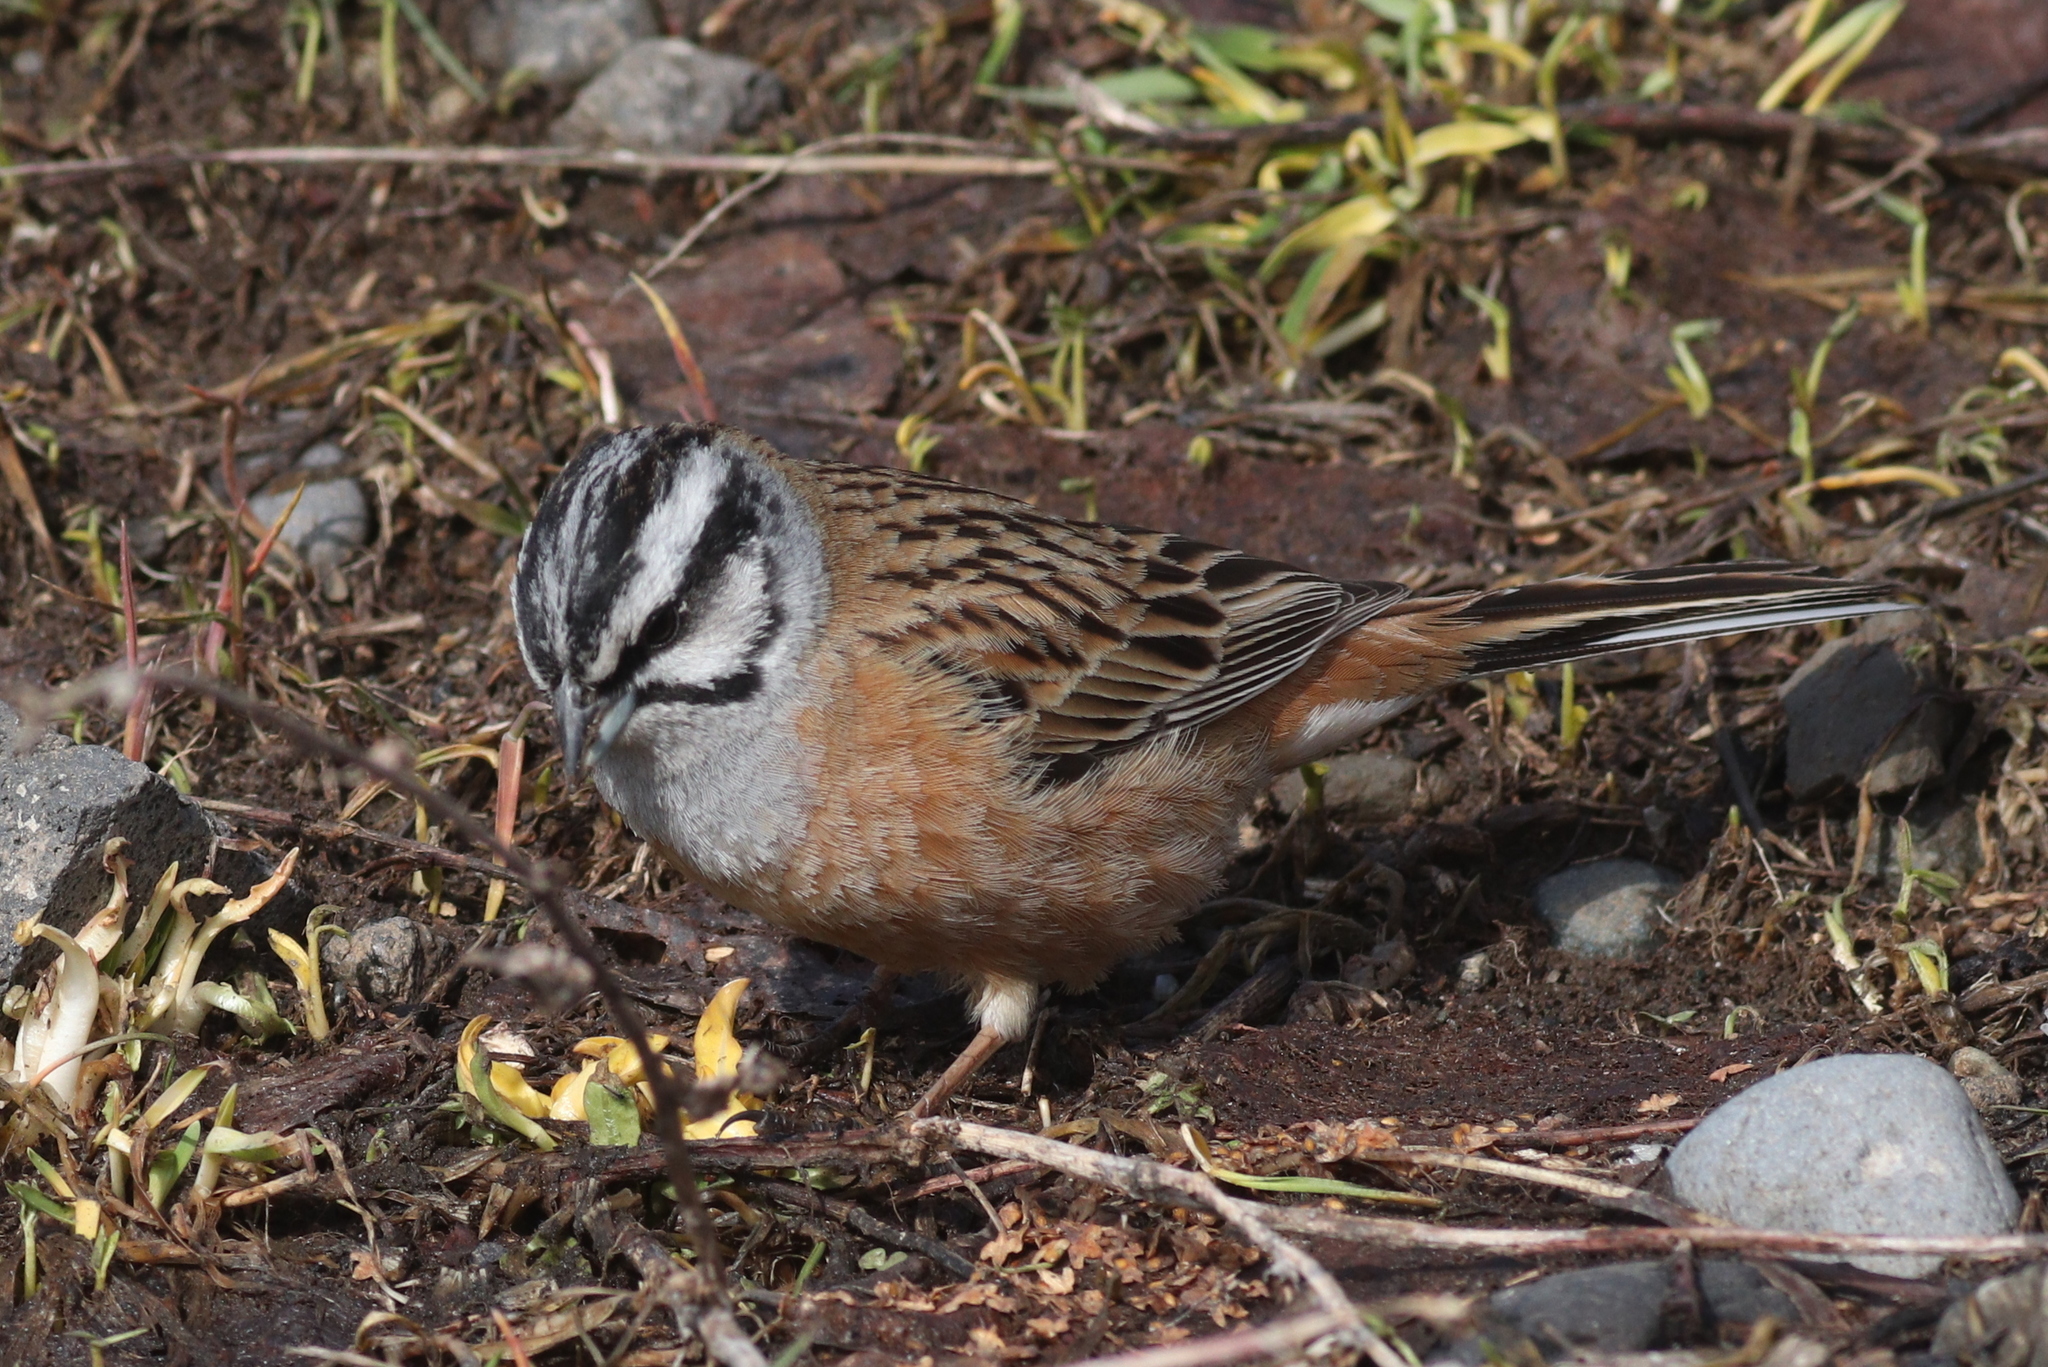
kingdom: Animalia
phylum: Chordata
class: Aves
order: Passeriformes
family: Emberizidae
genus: Emberiza
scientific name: Emberiza cia
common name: Rock bunting
